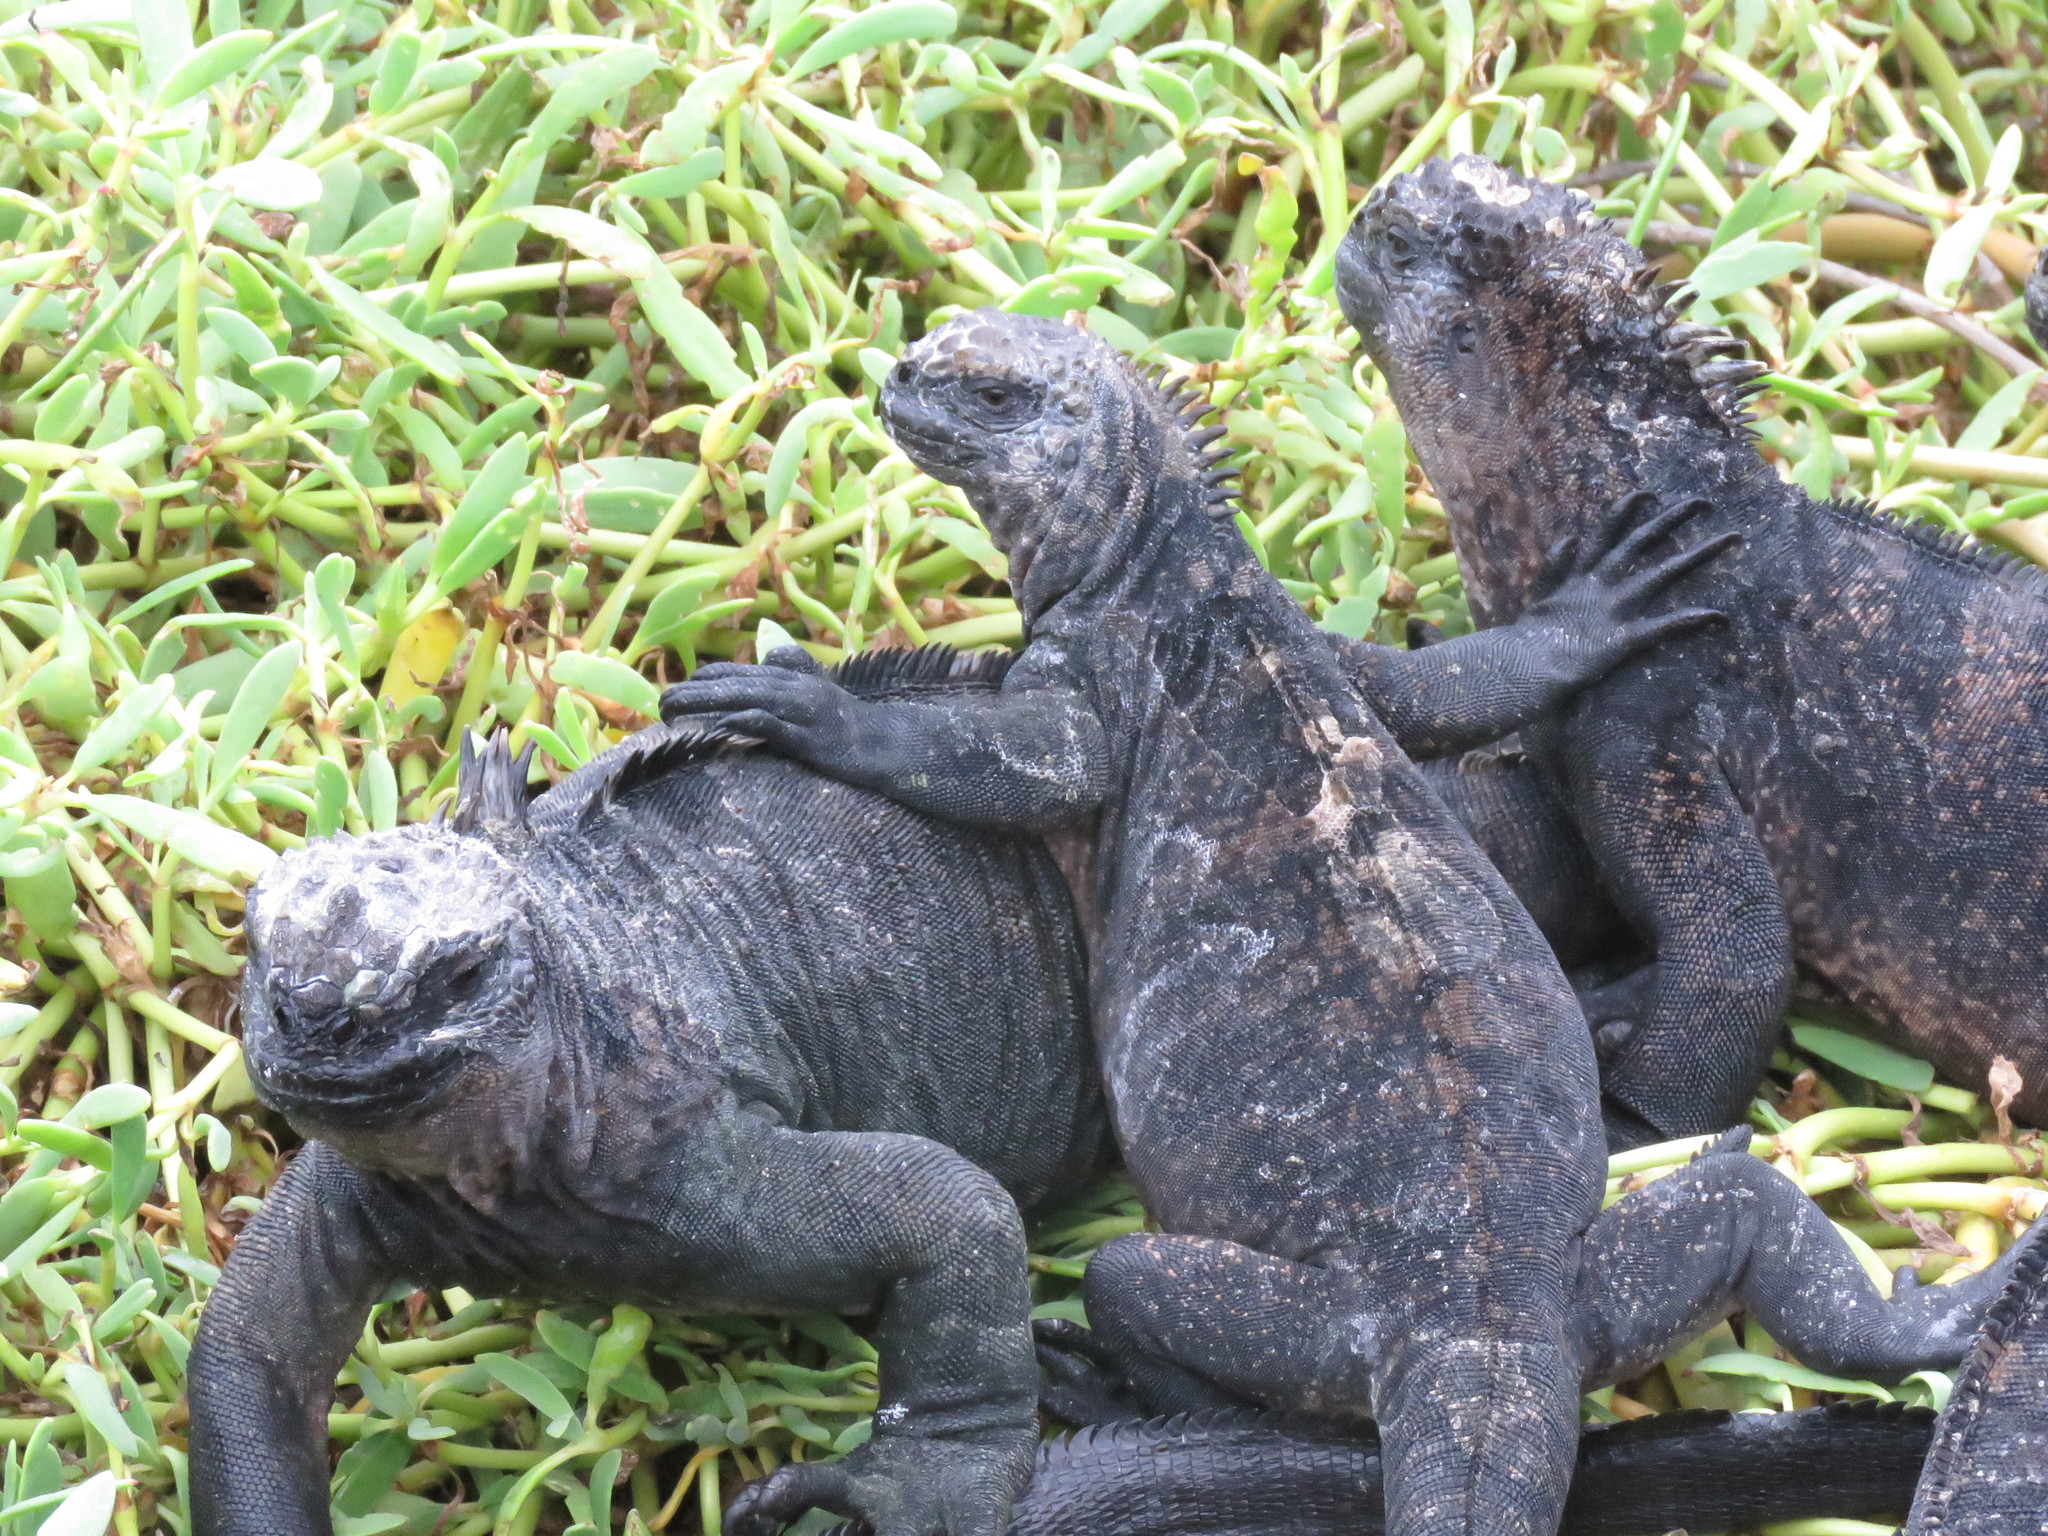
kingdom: Animalia
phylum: Chordata
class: Squamata
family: Iguanidae
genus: Amblyrhynchus
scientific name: Amblyrhynchus cristatus
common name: Marine iguana
